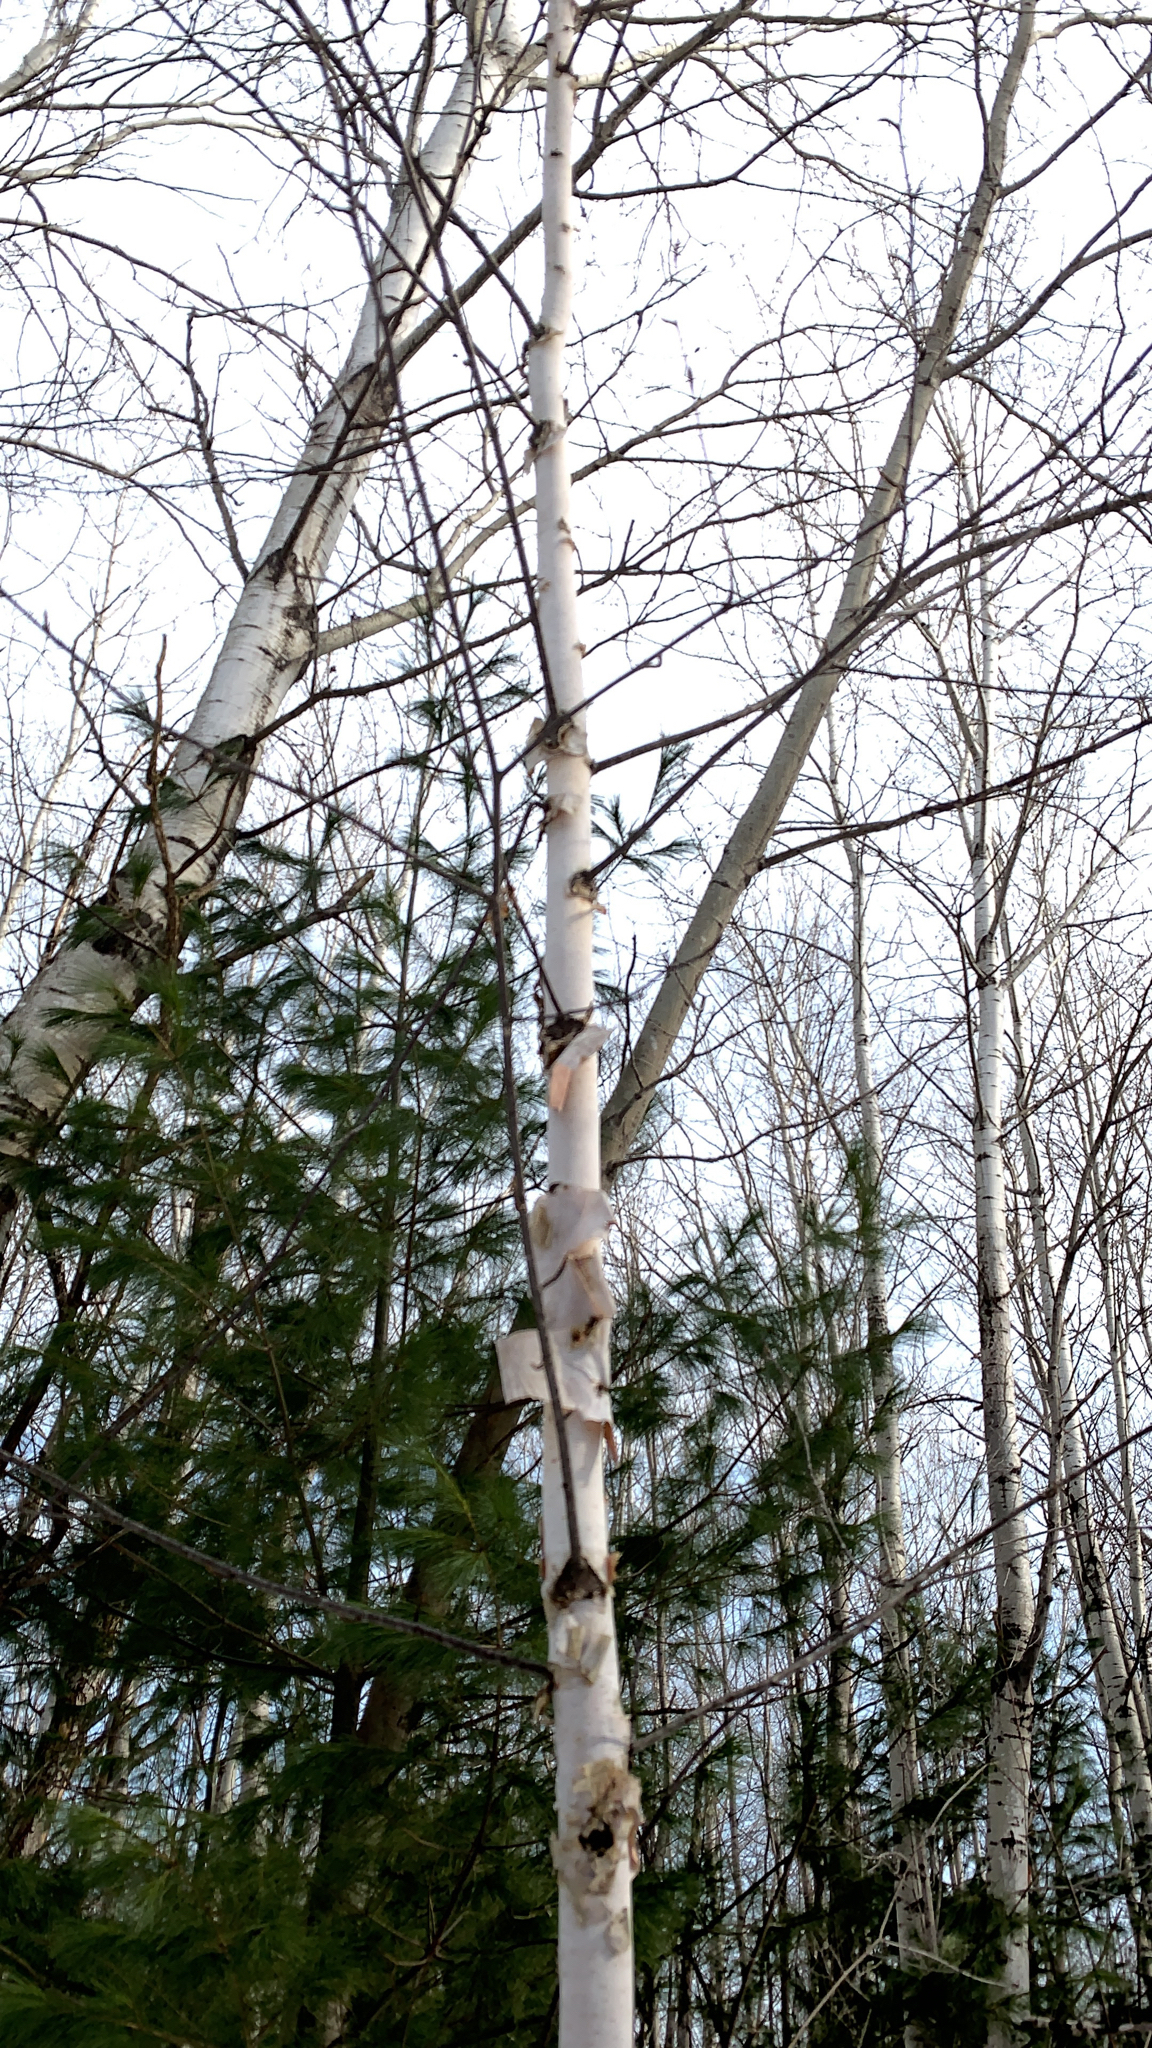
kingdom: Plantae
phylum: Tracheophyta
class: Magnoliopsida
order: Fagales
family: Betulaceae
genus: Betula
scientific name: Betula papyrifera
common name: Paper birch
